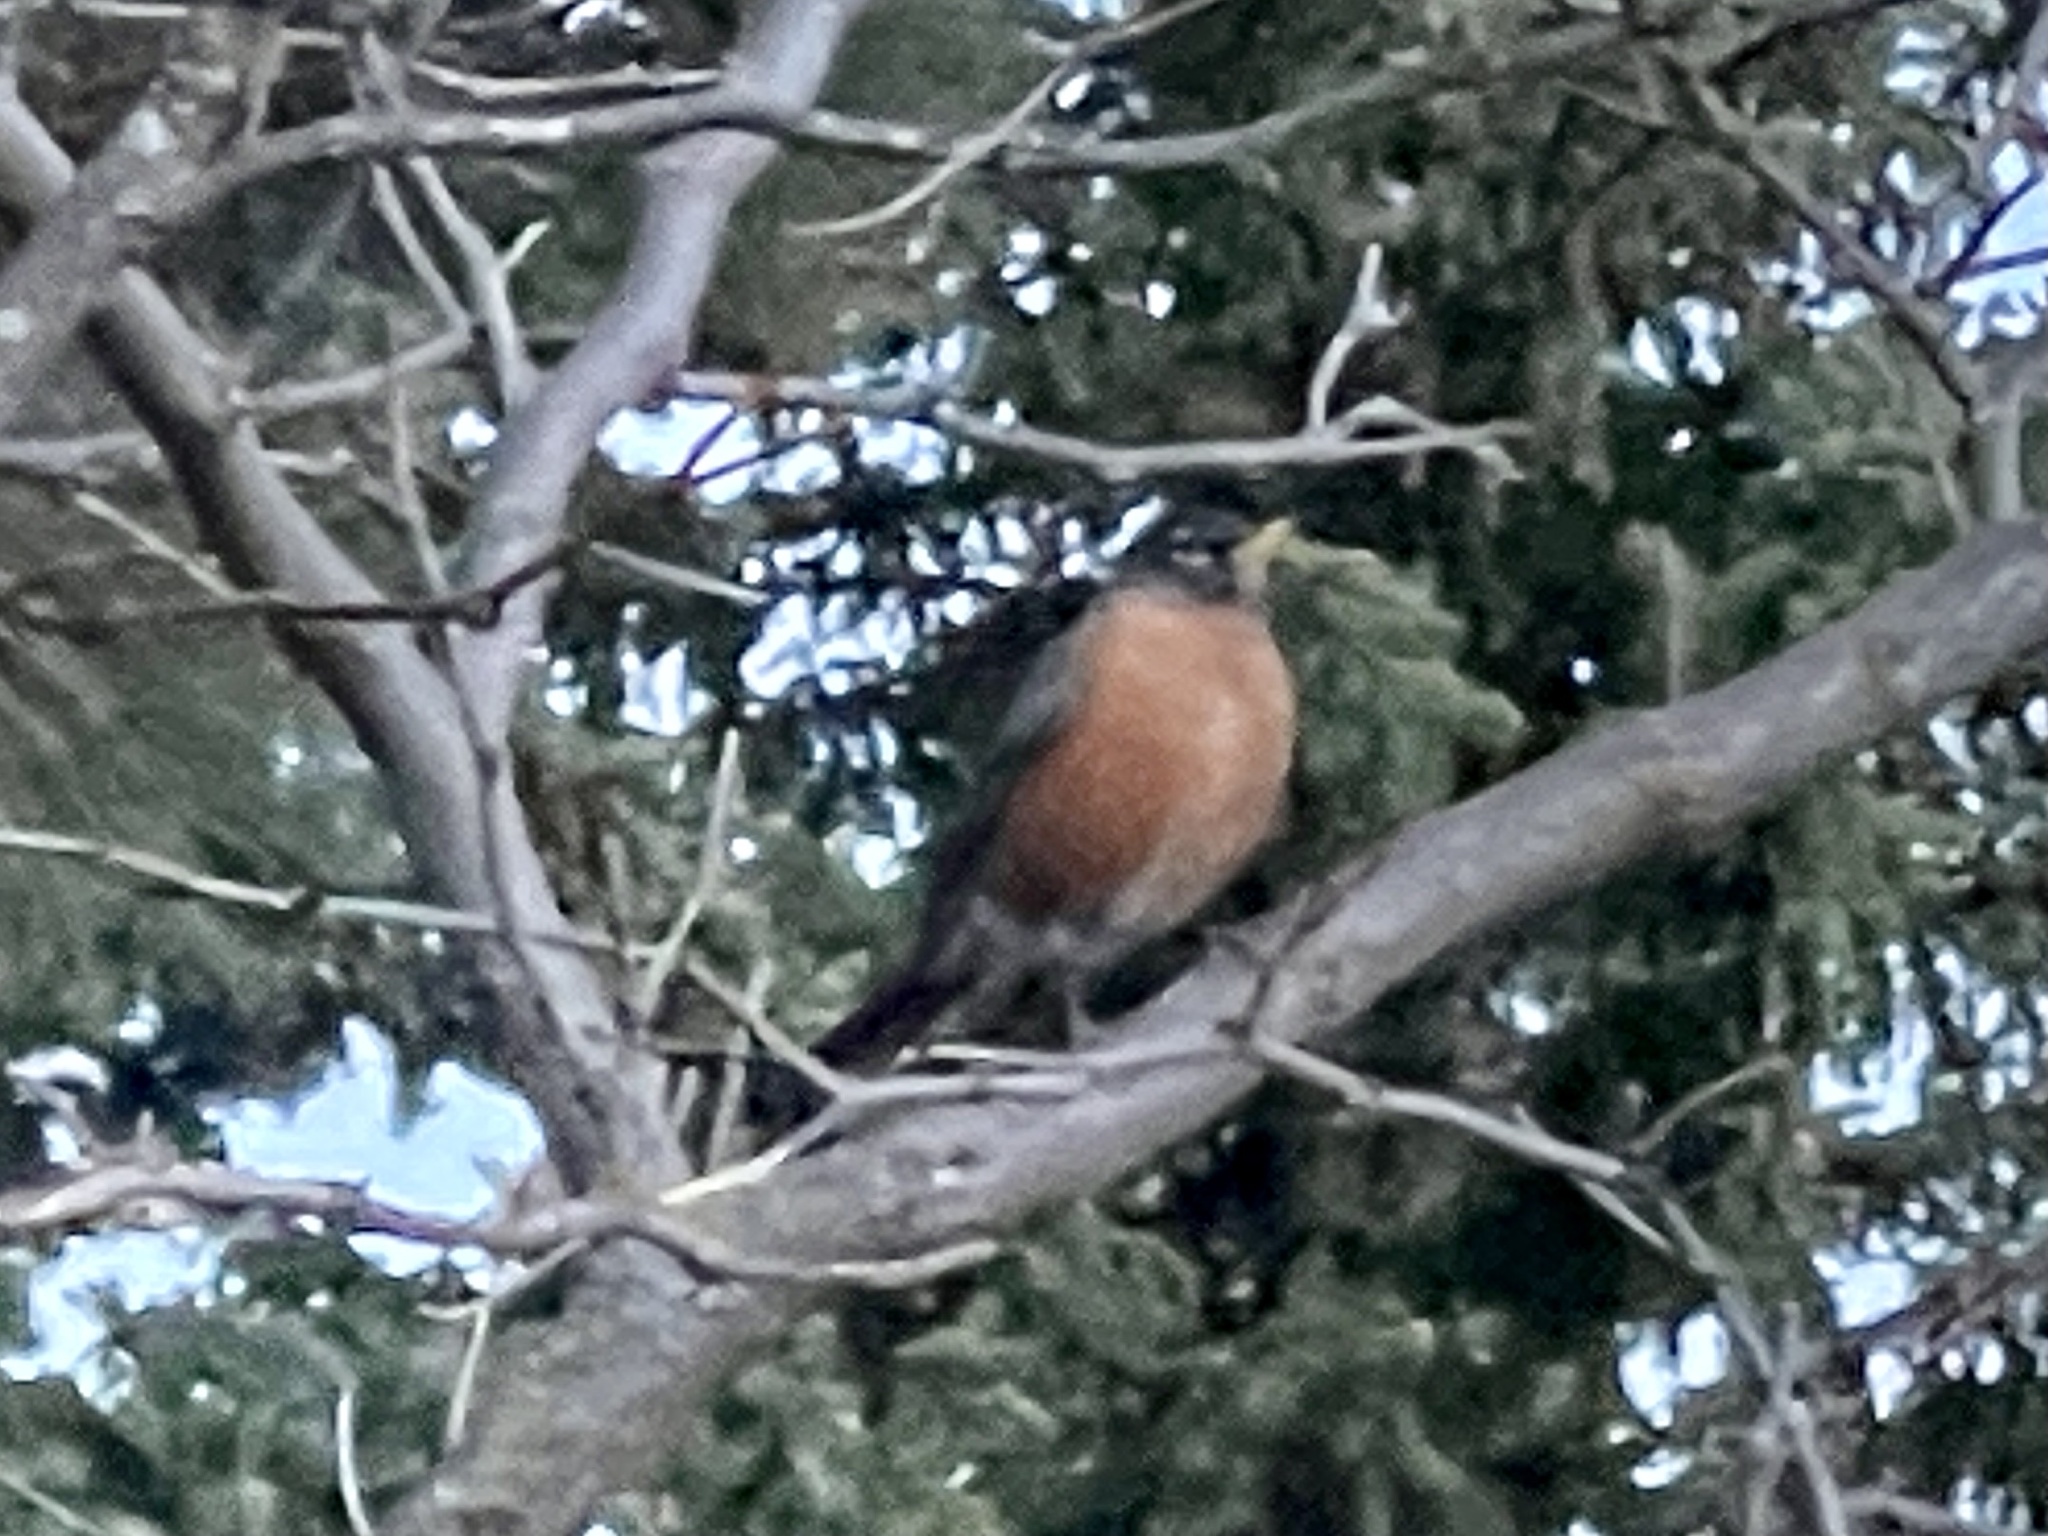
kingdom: Animalia
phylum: Chordata
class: Aves
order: Passeriformes
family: Turdidae
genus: Turdus
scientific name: Turdus migratorius
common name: American robin
